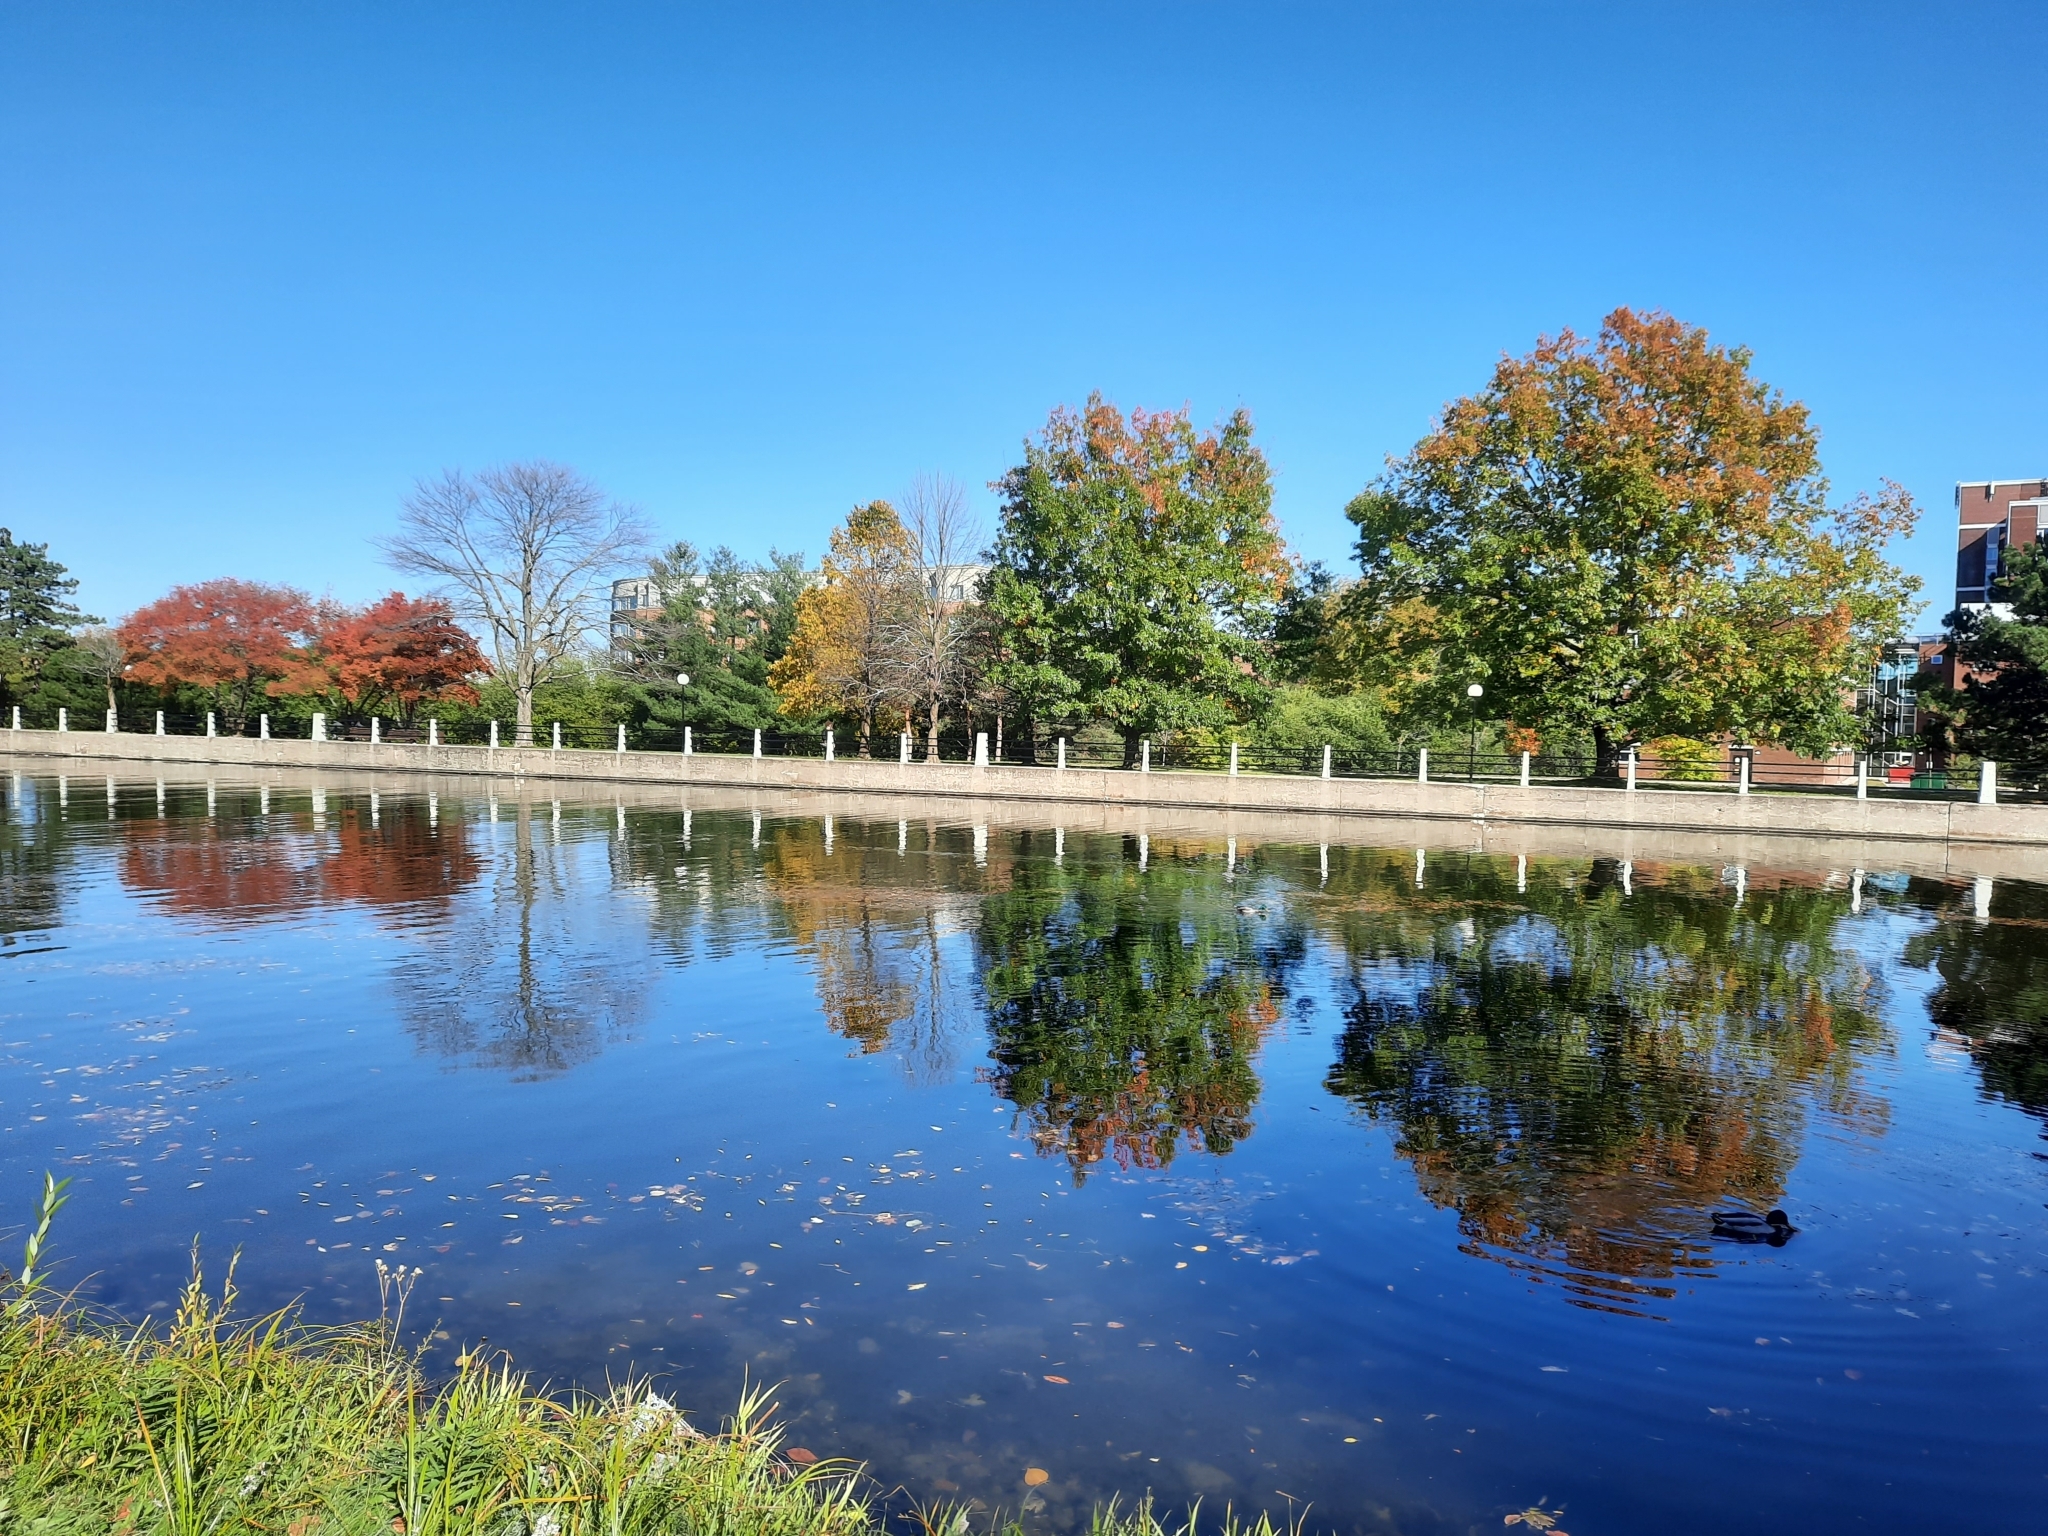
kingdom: Animalia
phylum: Chordata
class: Aves
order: Anseriformes
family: Anatidae
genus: Anas
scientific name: Anas platyrhynchos
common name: Mallard
